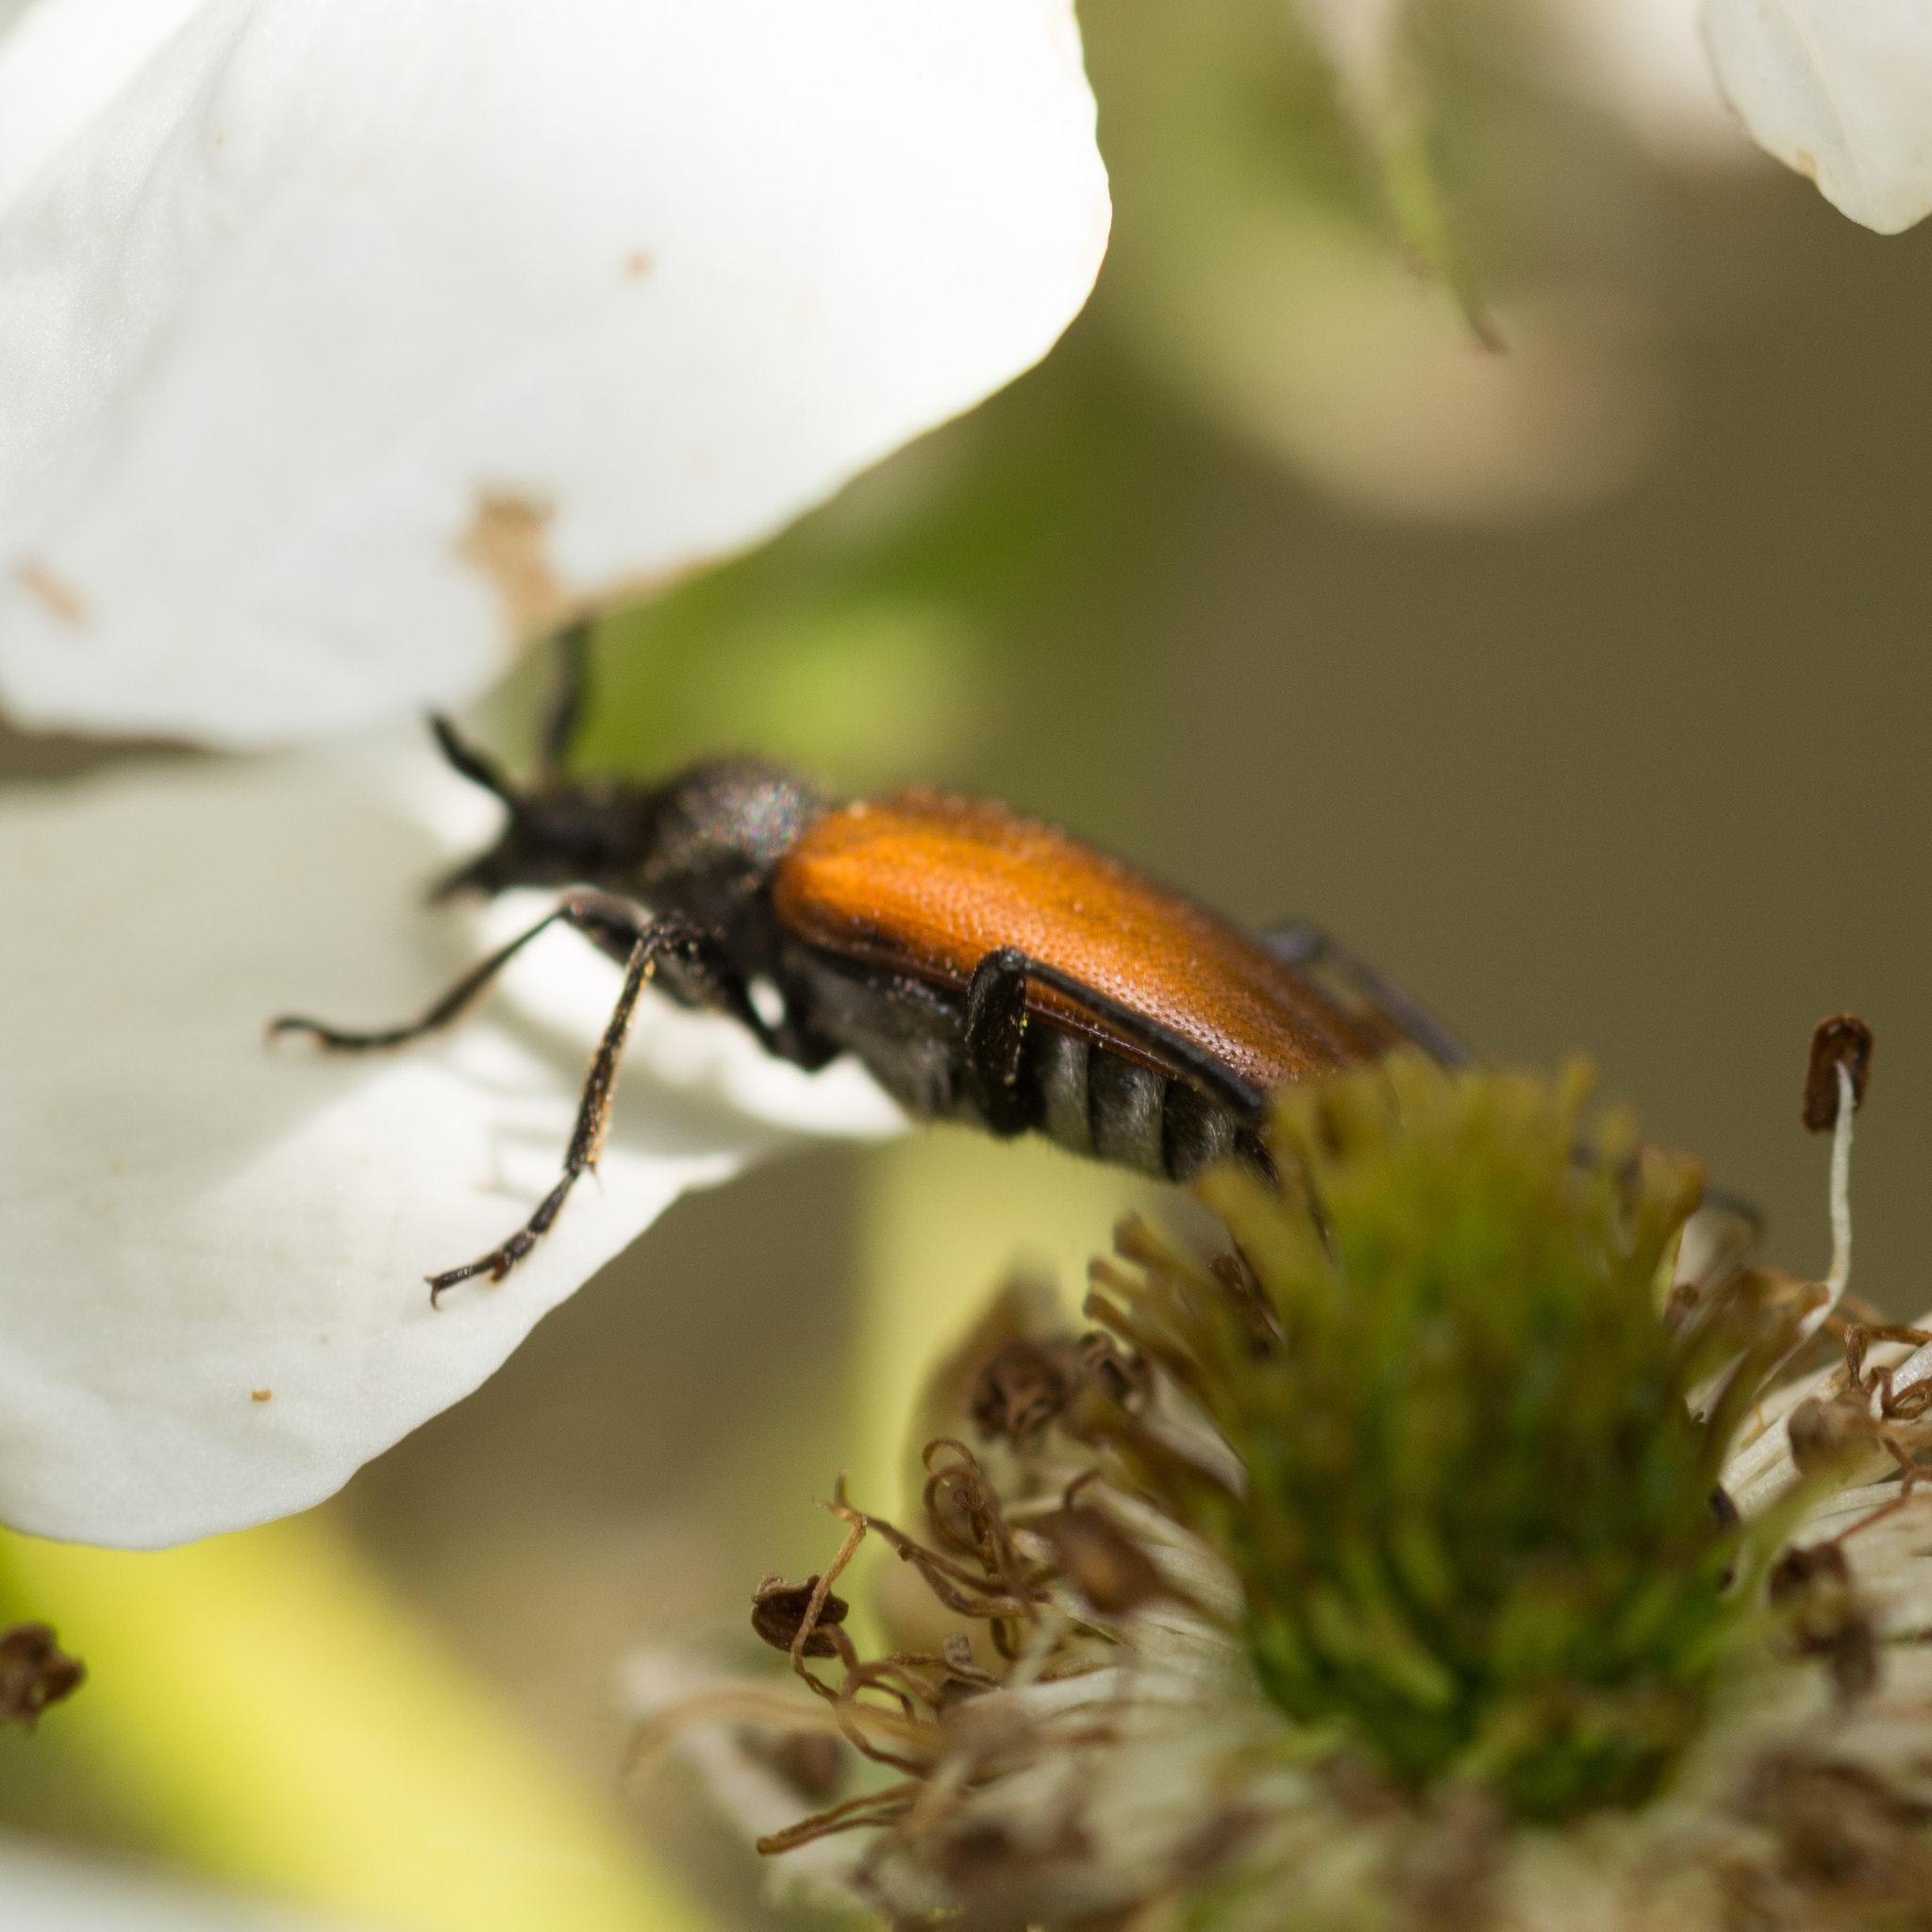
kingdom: Animalia
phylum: Arthropoda
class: Insecta
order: Coleoptera
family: Cerambycidae
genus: Paracorymbia
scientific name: Paracorymbia maculicornis
